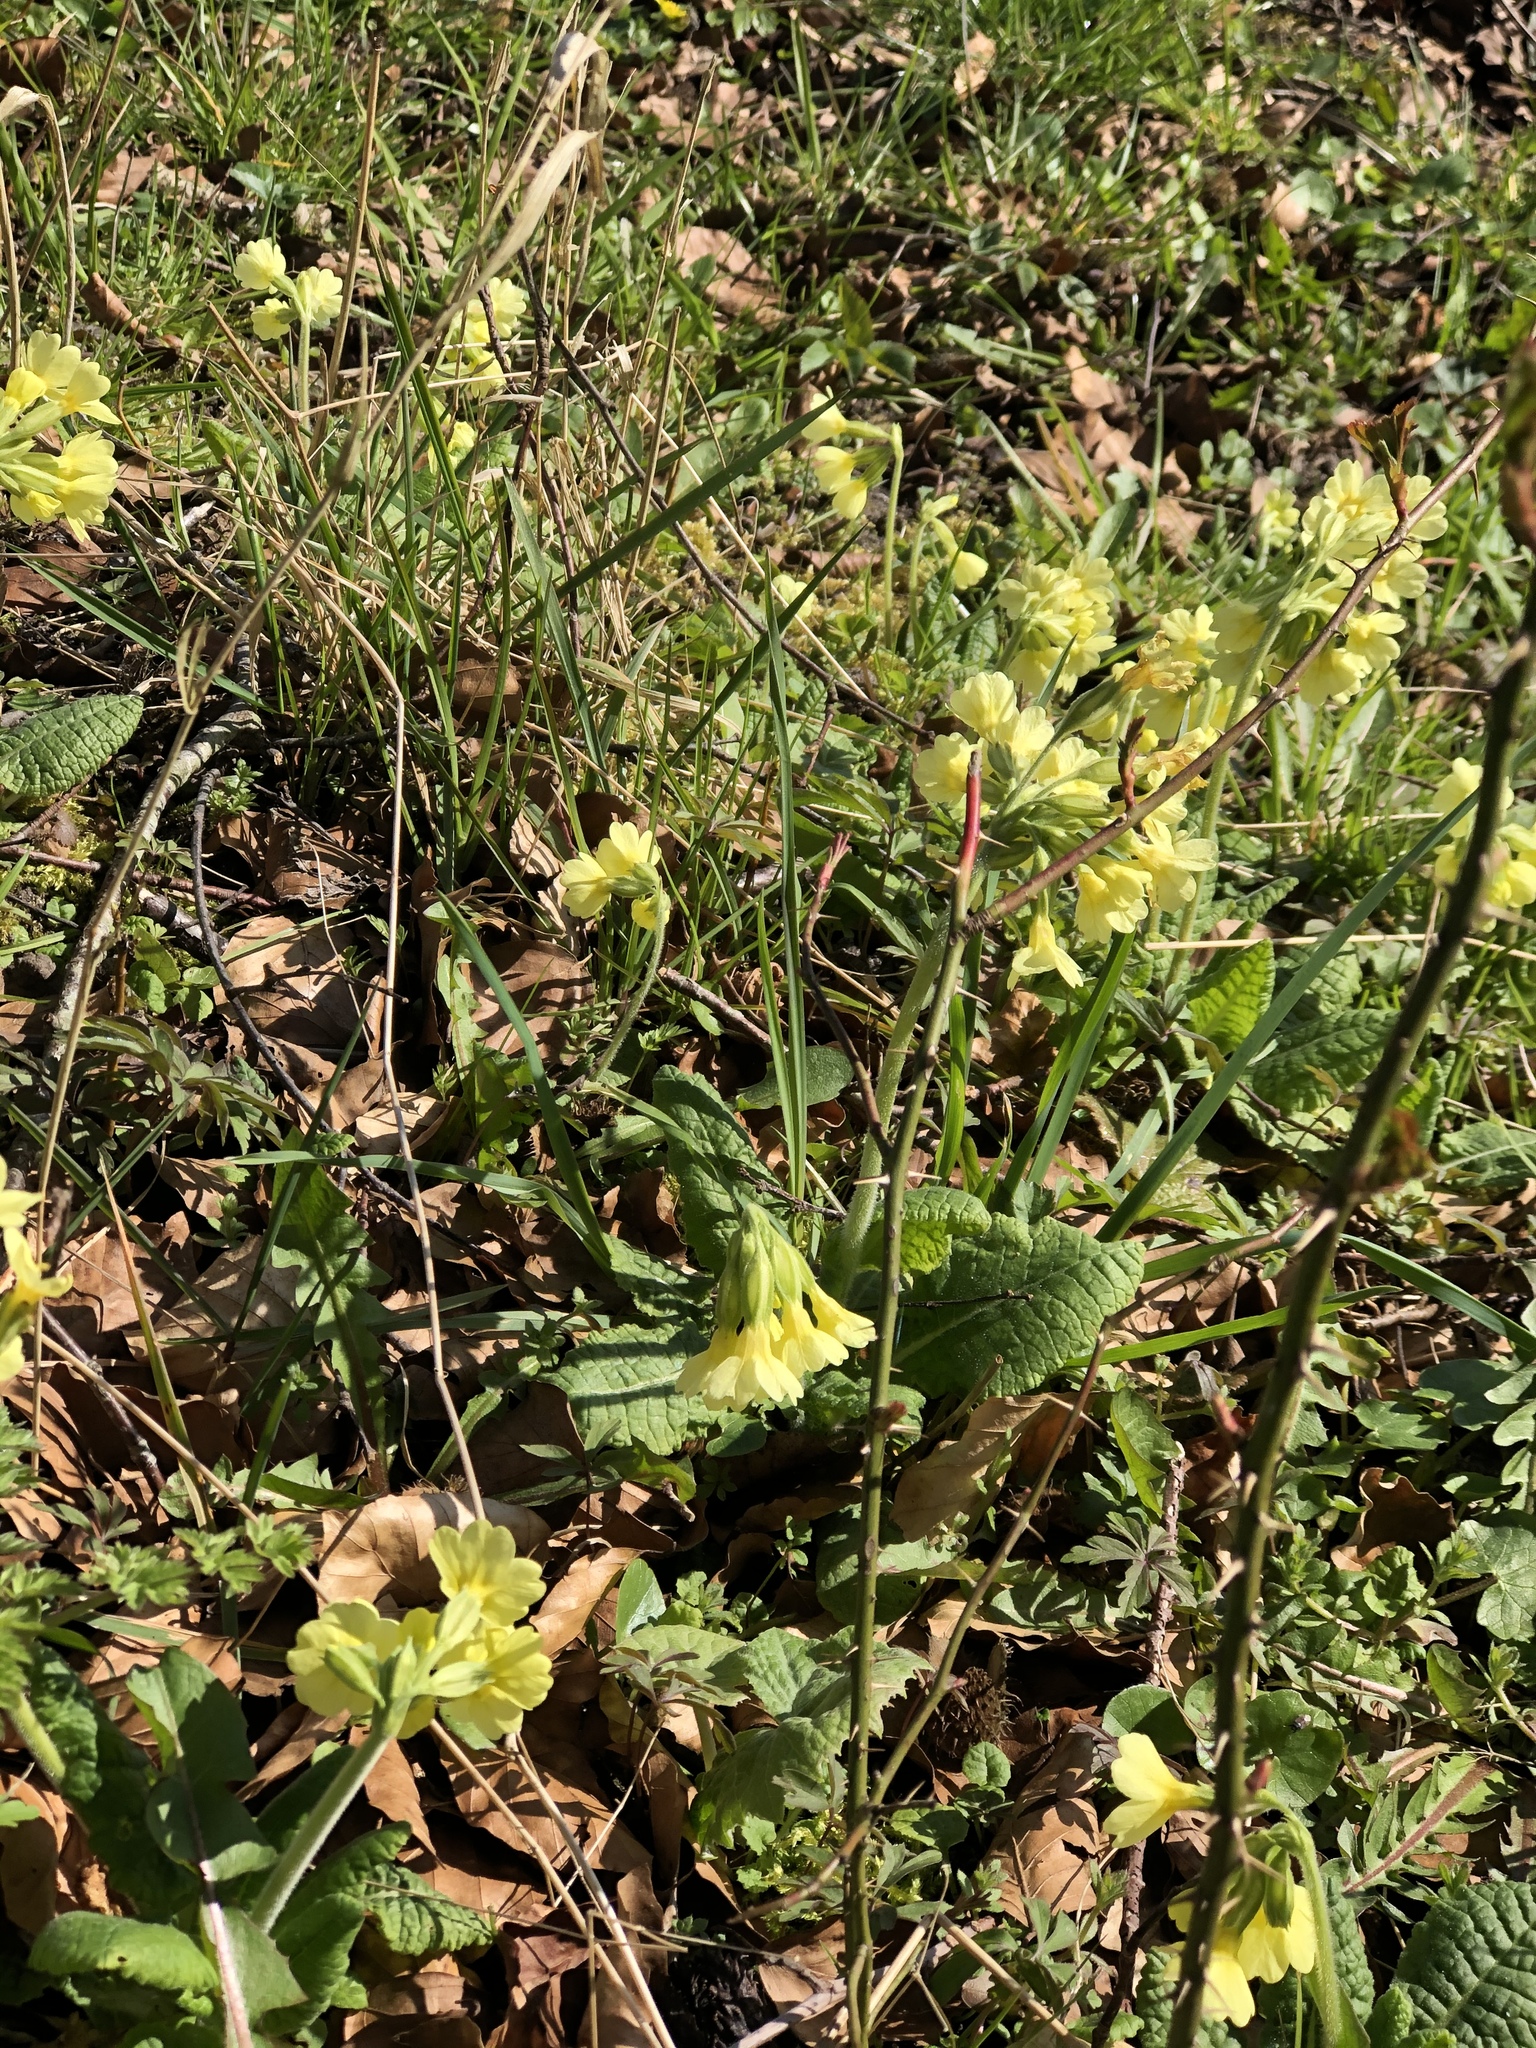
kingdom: Plantae
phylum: Tracheophyta
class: Magnoliopsida
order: Ericales
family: Primulaceae
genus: Primula
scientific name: Primula elatior
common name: Oxlip
